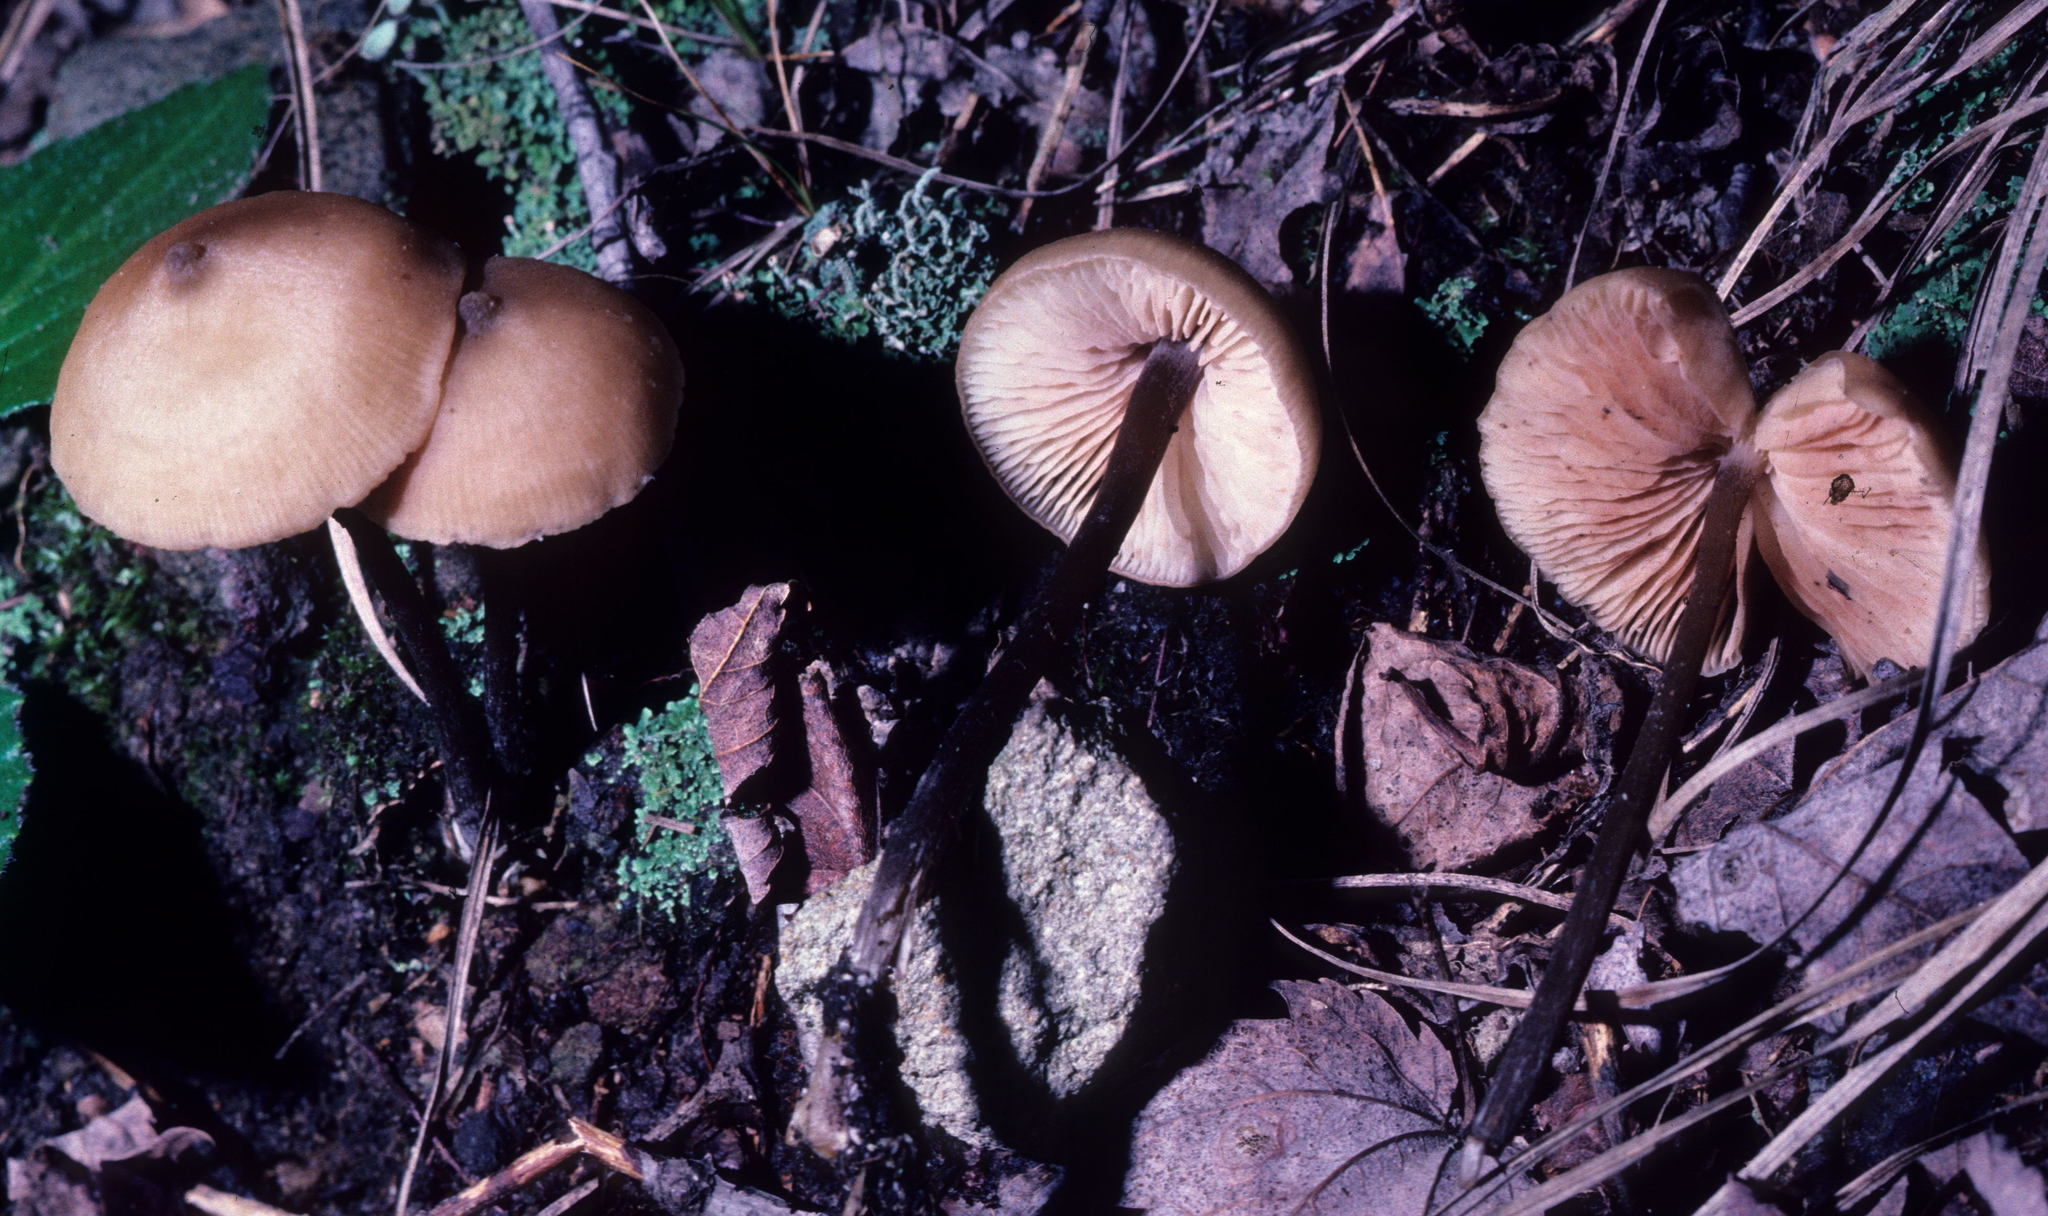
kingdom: Fungi
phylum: Basidiomycota
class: Agaricomycetes
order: Agaricales
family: Entolomataceae
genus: Entoloma
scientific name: Entoloma conicum
